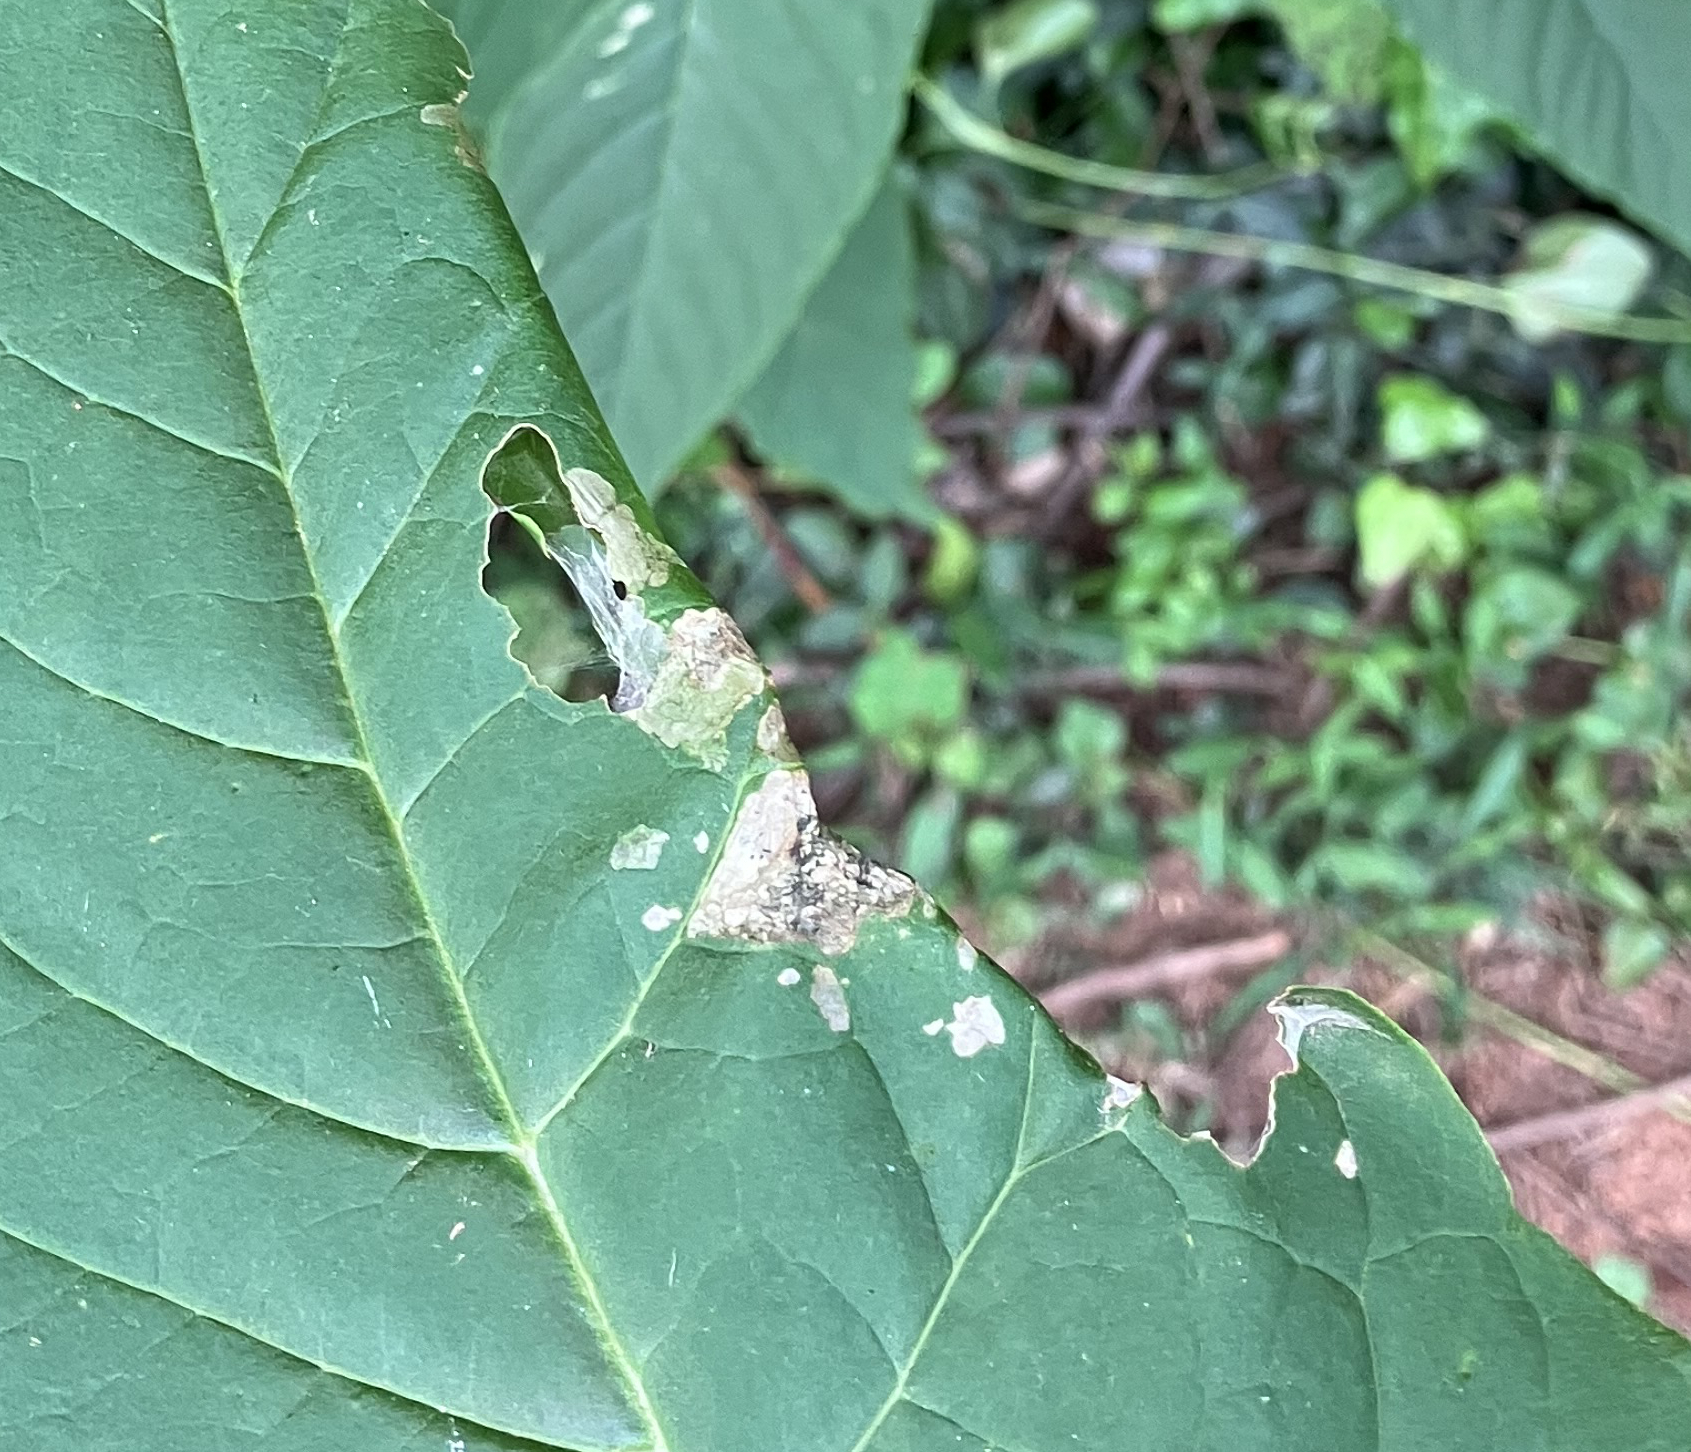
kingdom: Animalia
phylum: Arthropoda
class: Insecta
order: Lepidoptera
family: Crambidae
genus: Syllepte
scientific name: Syllepte obscuralis
